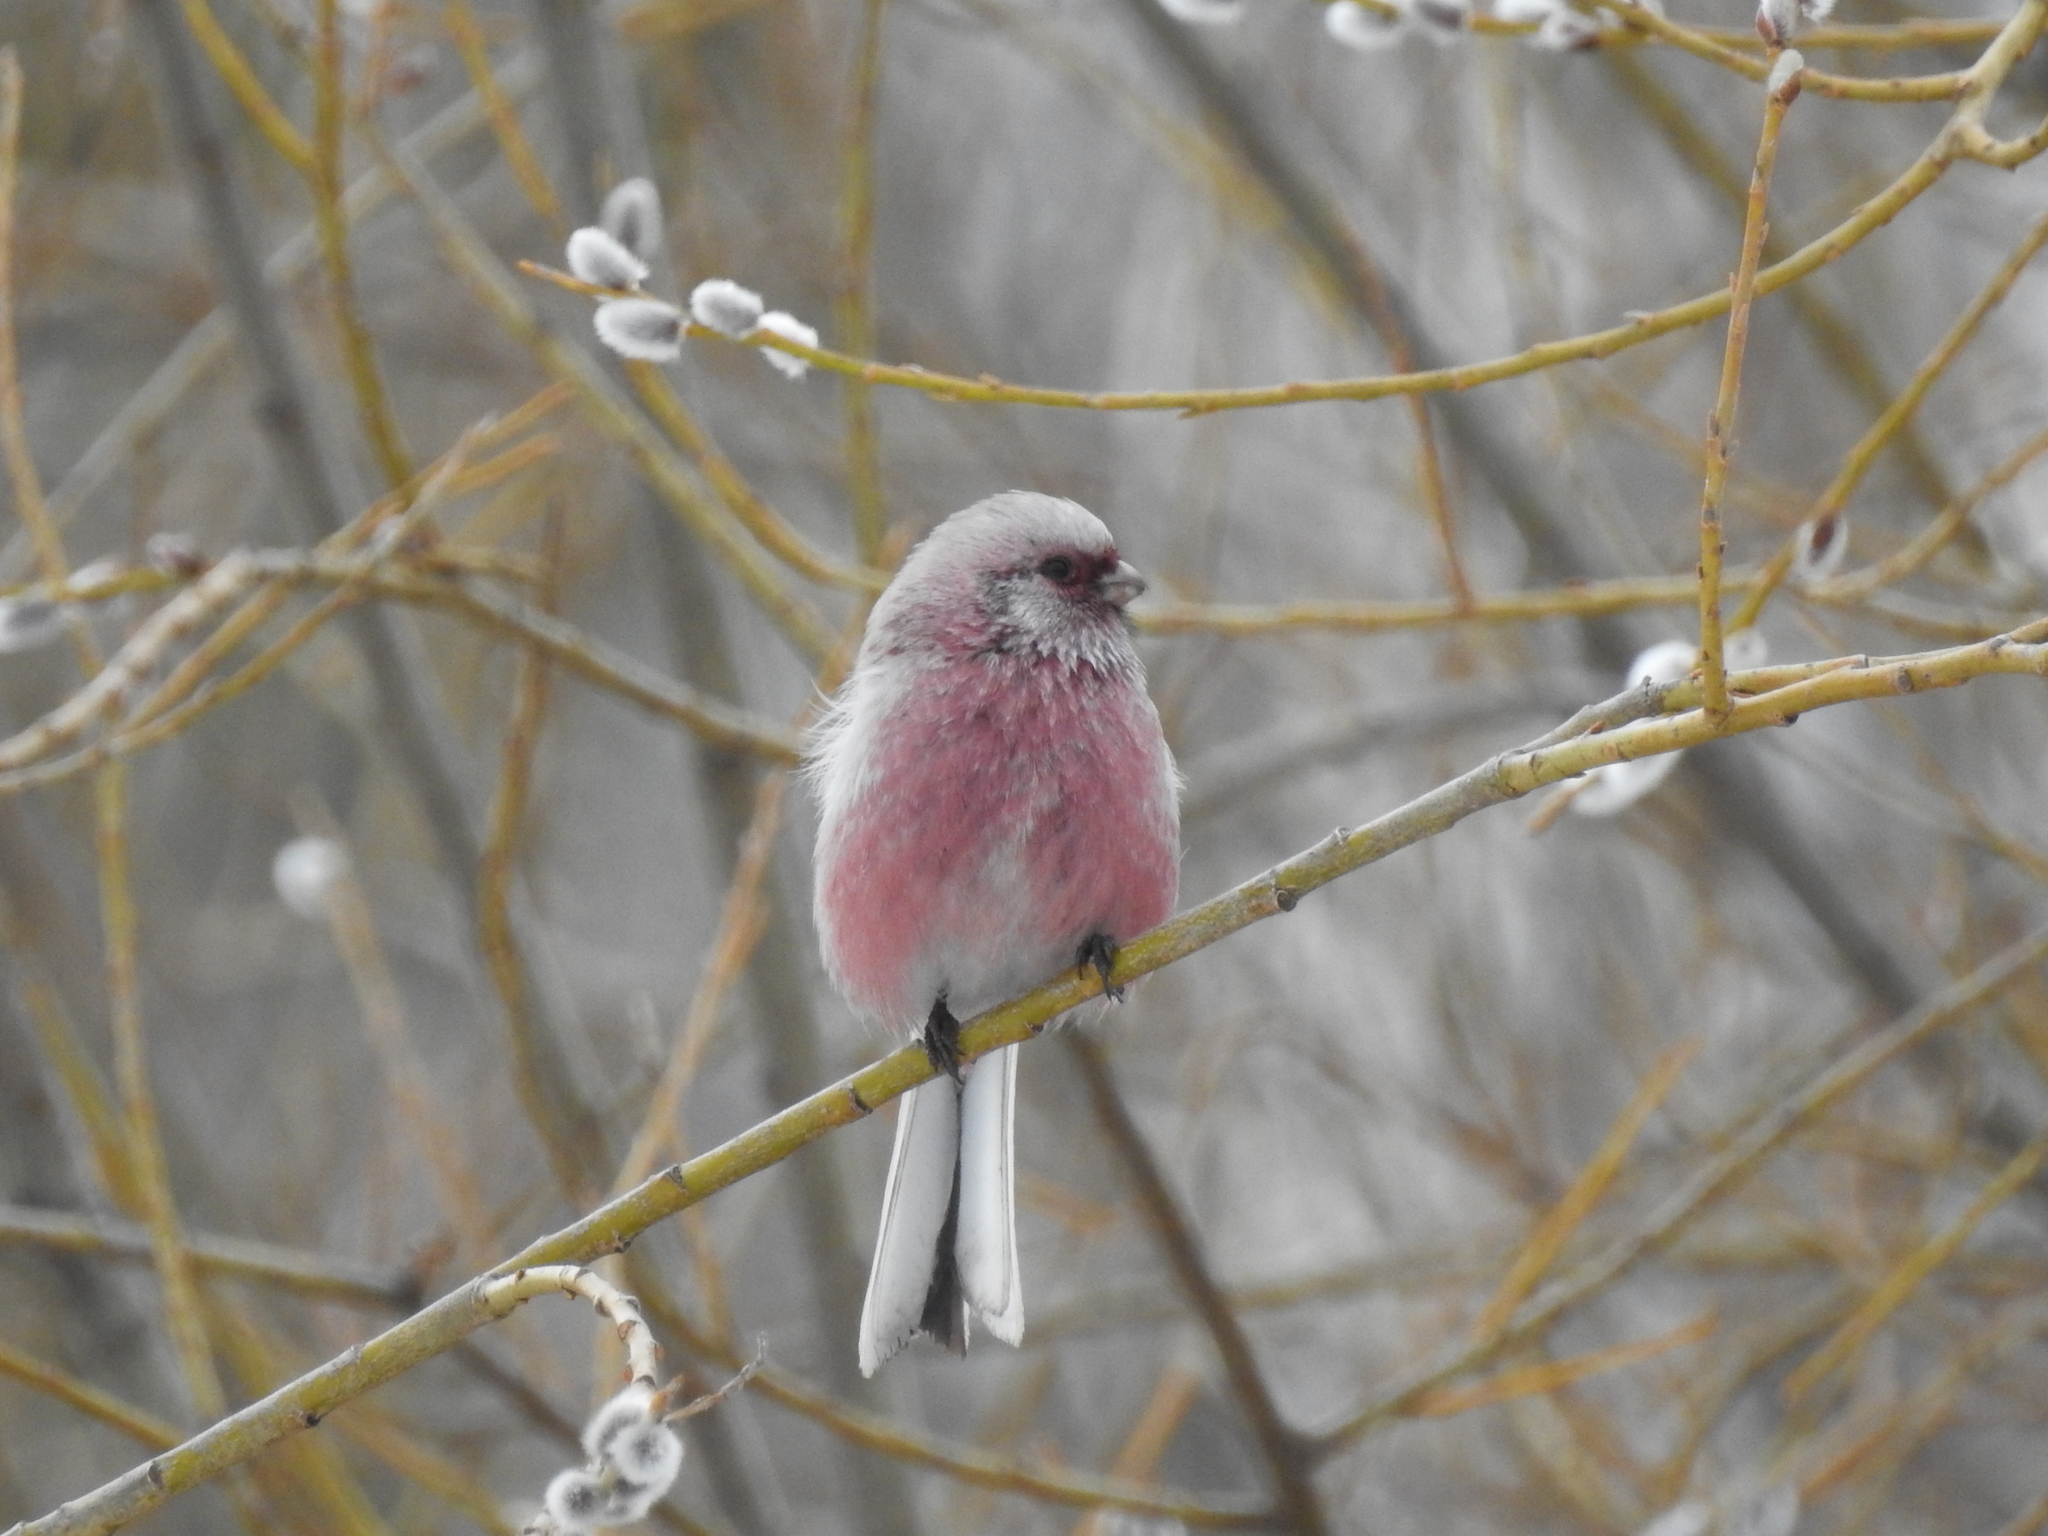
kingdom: Animalia
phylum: Chordata
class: Aves
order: Passeriformes
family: Fringillidae
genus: Carpodacus
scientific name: Carpodacus sibiricus
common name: Long-tailed rosefinch
